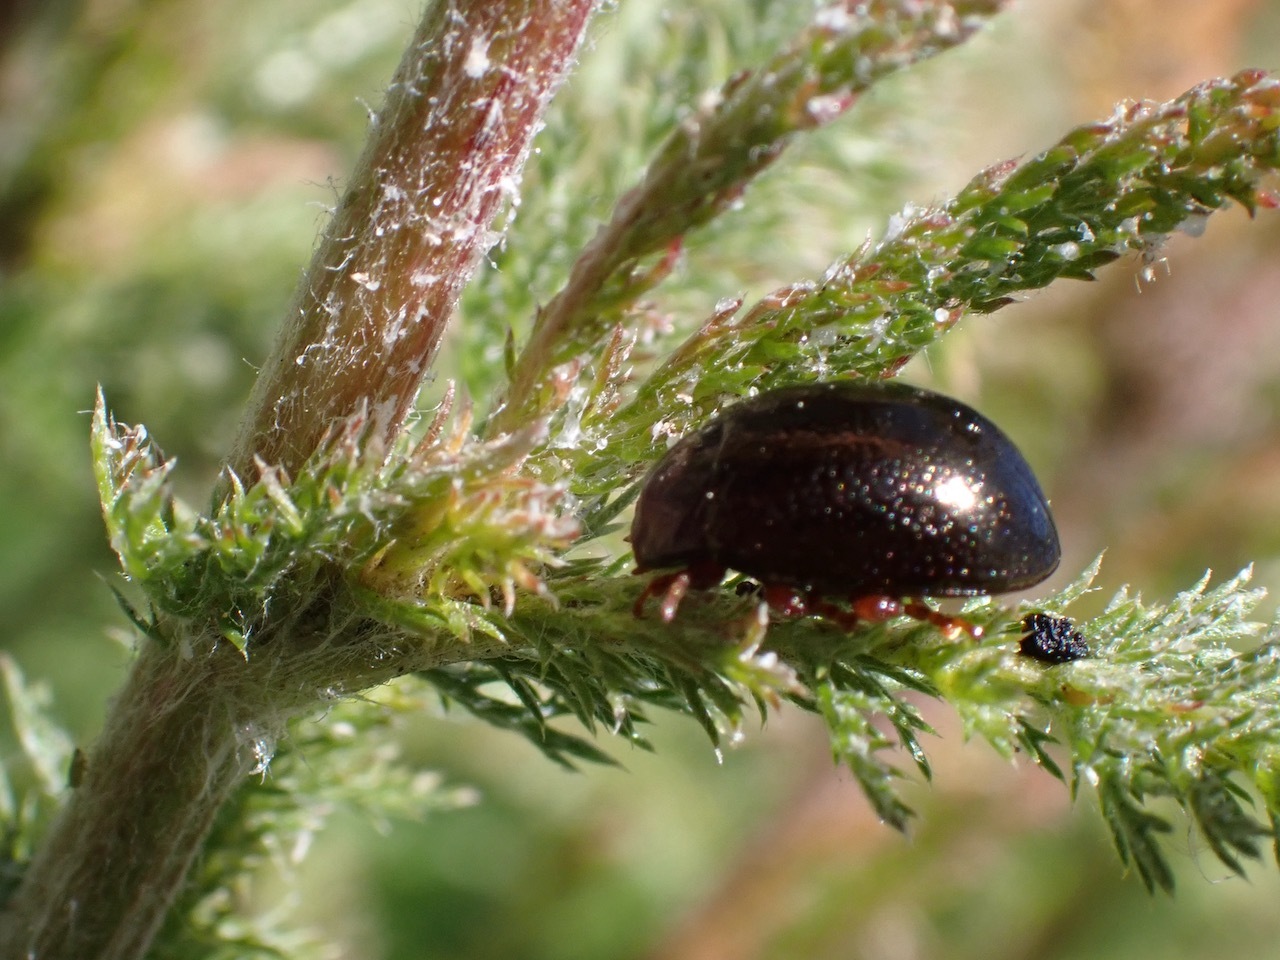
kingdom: Animalia
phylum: Arthropoda
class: Insecta
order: Coleoptera
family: Chrysomelidae
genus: Chrysolina
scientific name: Chrysolina bankii
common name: Leaf beetle
